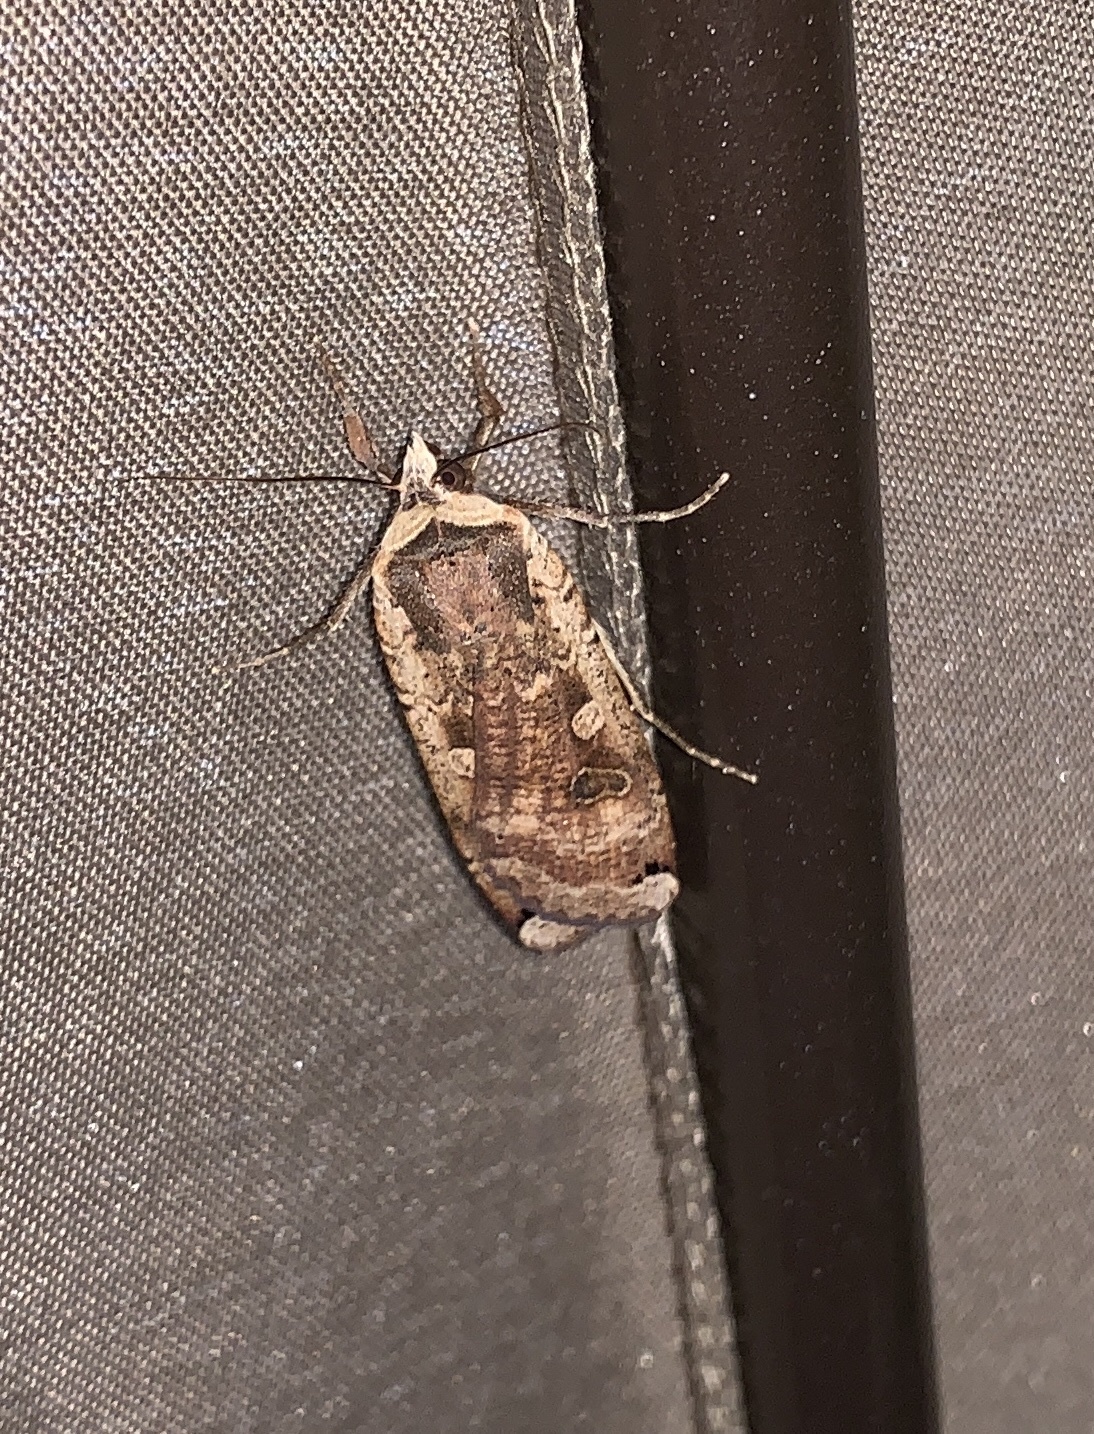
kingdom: Animalia
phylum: Arthropoda
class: Insecta
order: Lepidoptera
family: Noctuidae
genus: Noctua
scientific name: Noctua pronuba
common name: Large yellow underwing
